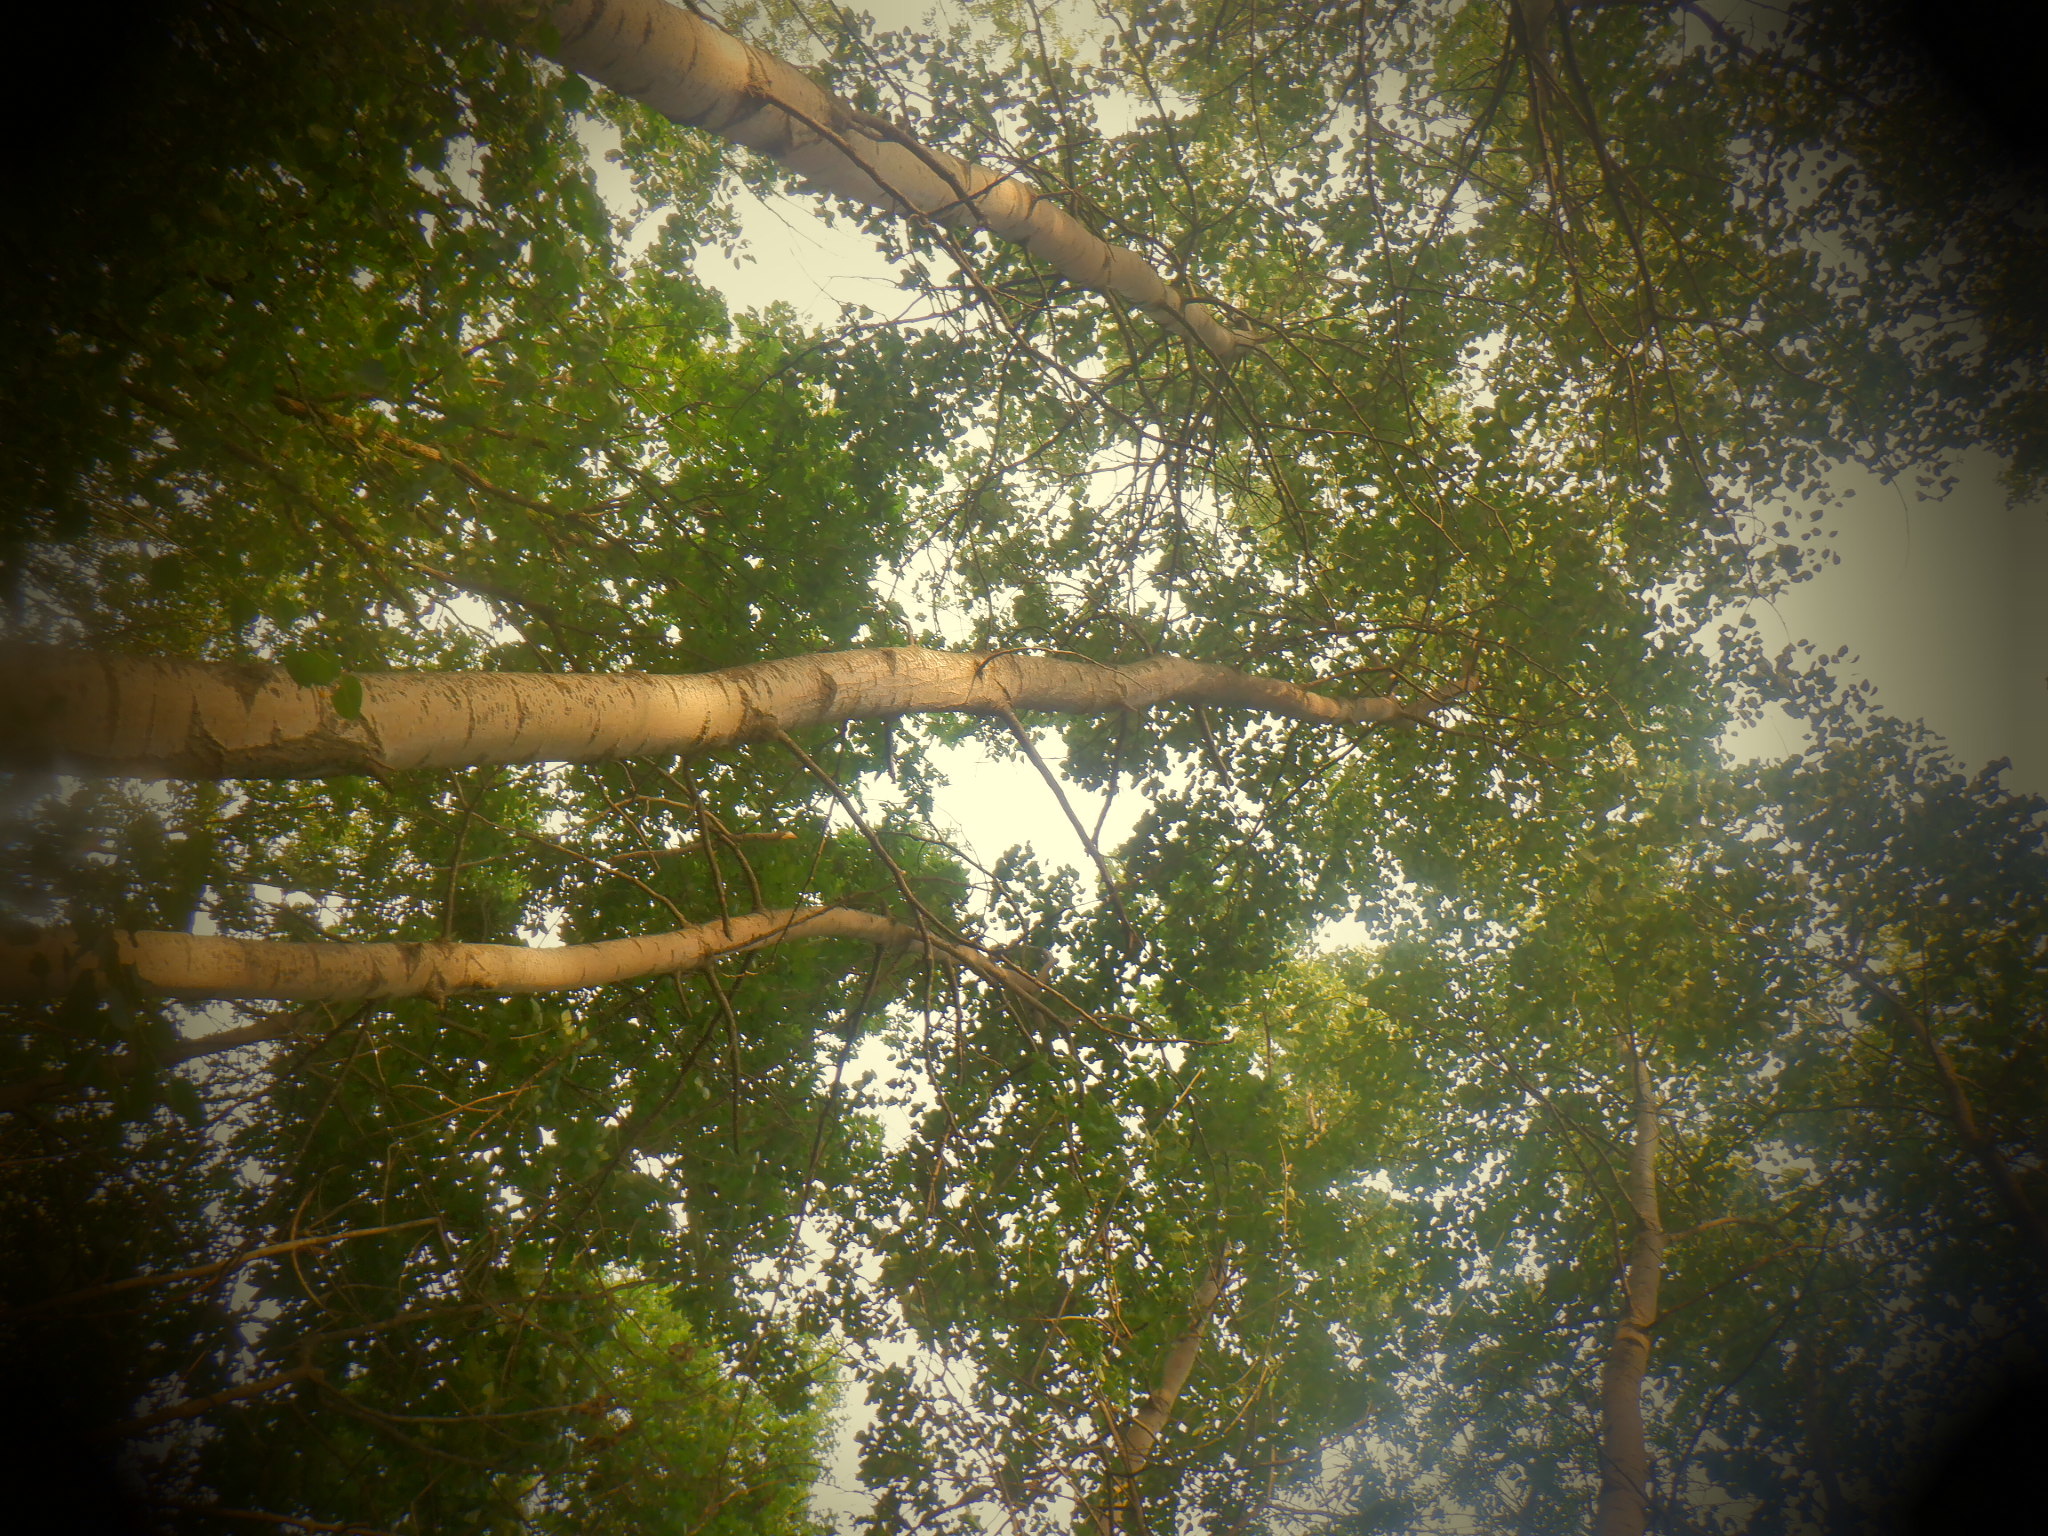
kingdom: Plantae
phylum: Tracheophyta
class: Magnoliopsida
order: Malpighiales
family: Salicaceae
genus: Populus
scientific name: Populus tremuloides
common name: Quaking aspen
